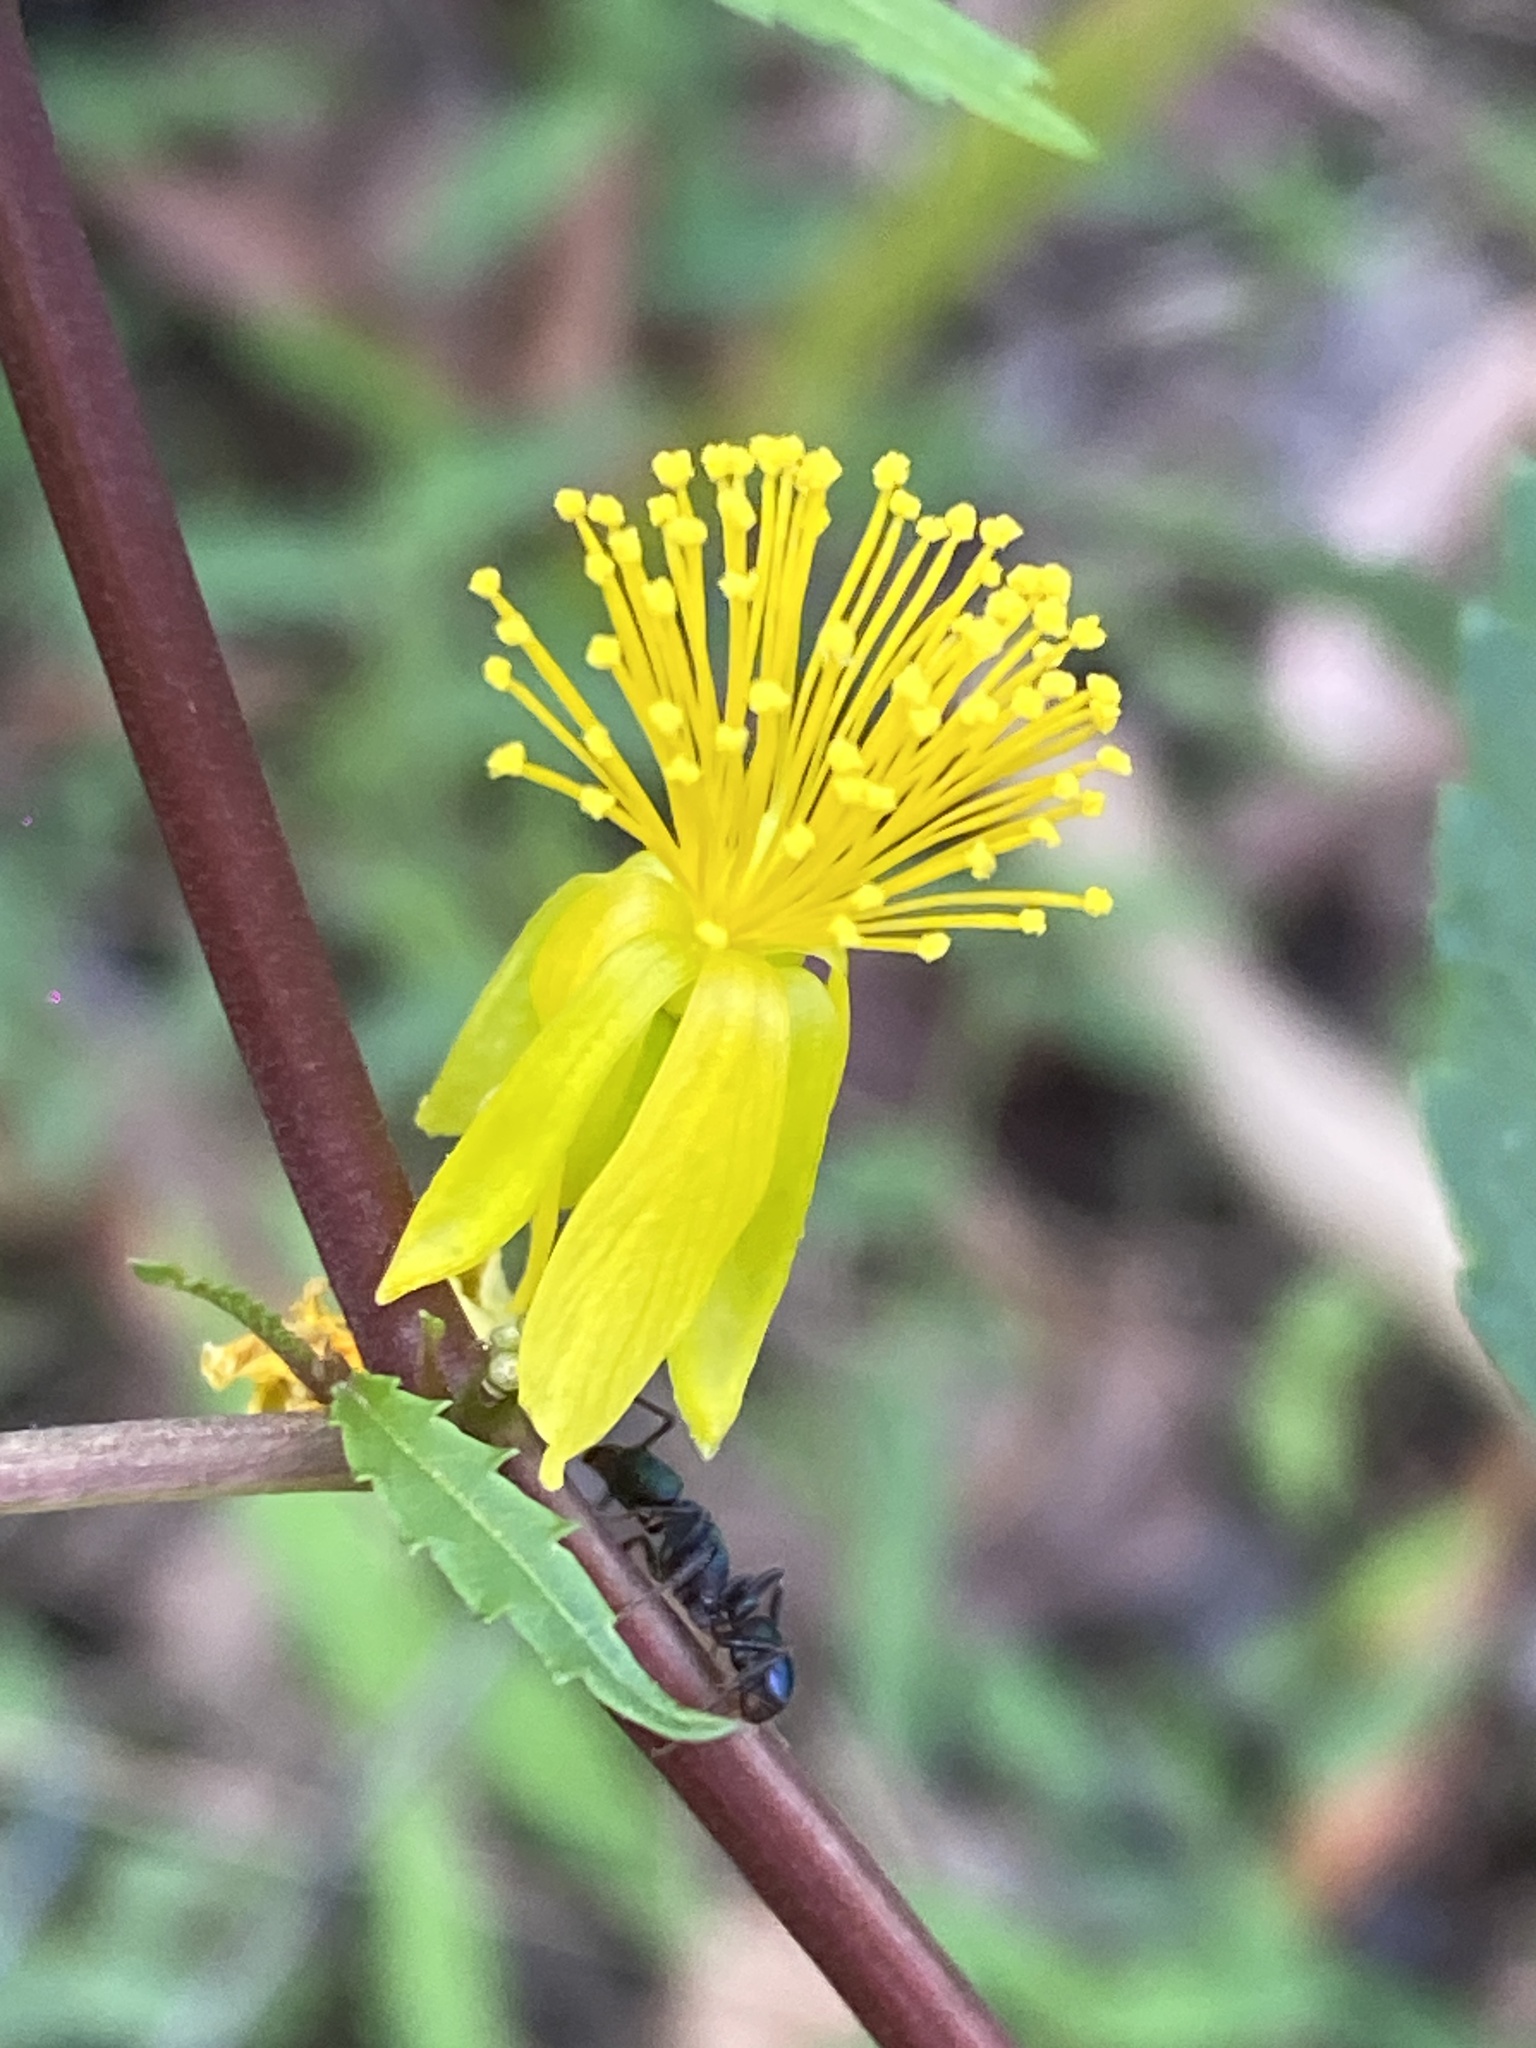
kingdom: Plantae
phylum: Tracheophyta
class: Magnoliopsida
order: Malvales
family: Malvaceae
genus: Corchorus
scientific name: Corchorus cunninghamii
